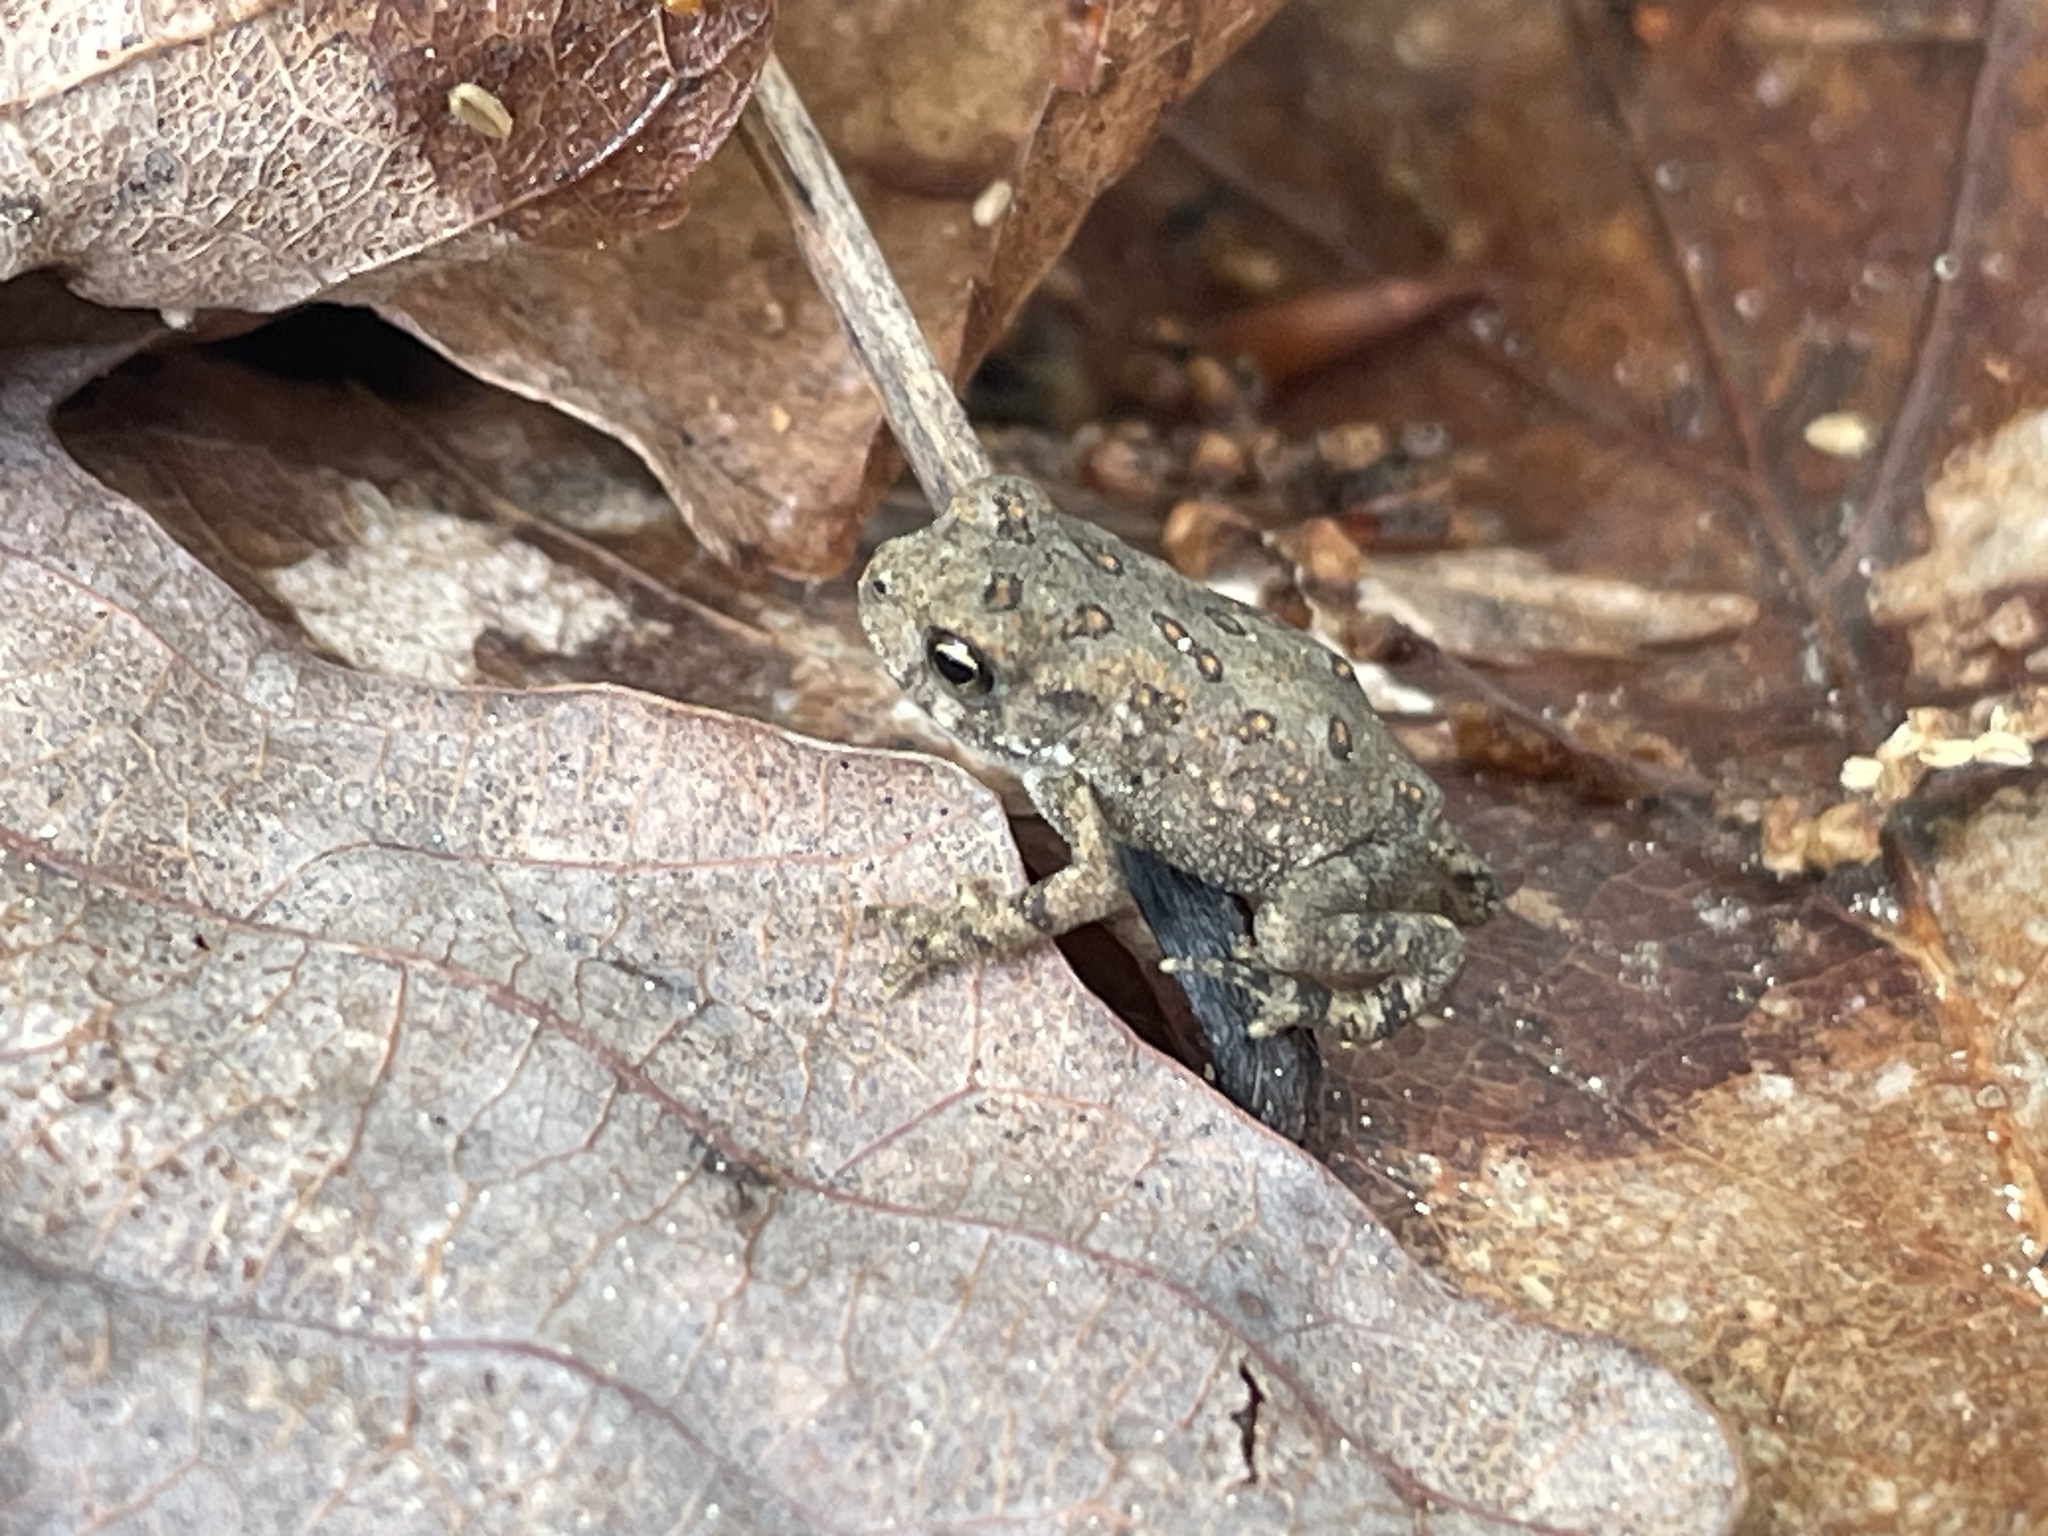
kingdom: Animalia
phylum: Chordata
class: Amphibia
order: Anura
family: Bufonidae
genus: Anaxyrus
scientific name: Anaxyrus americanus
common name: American toad
